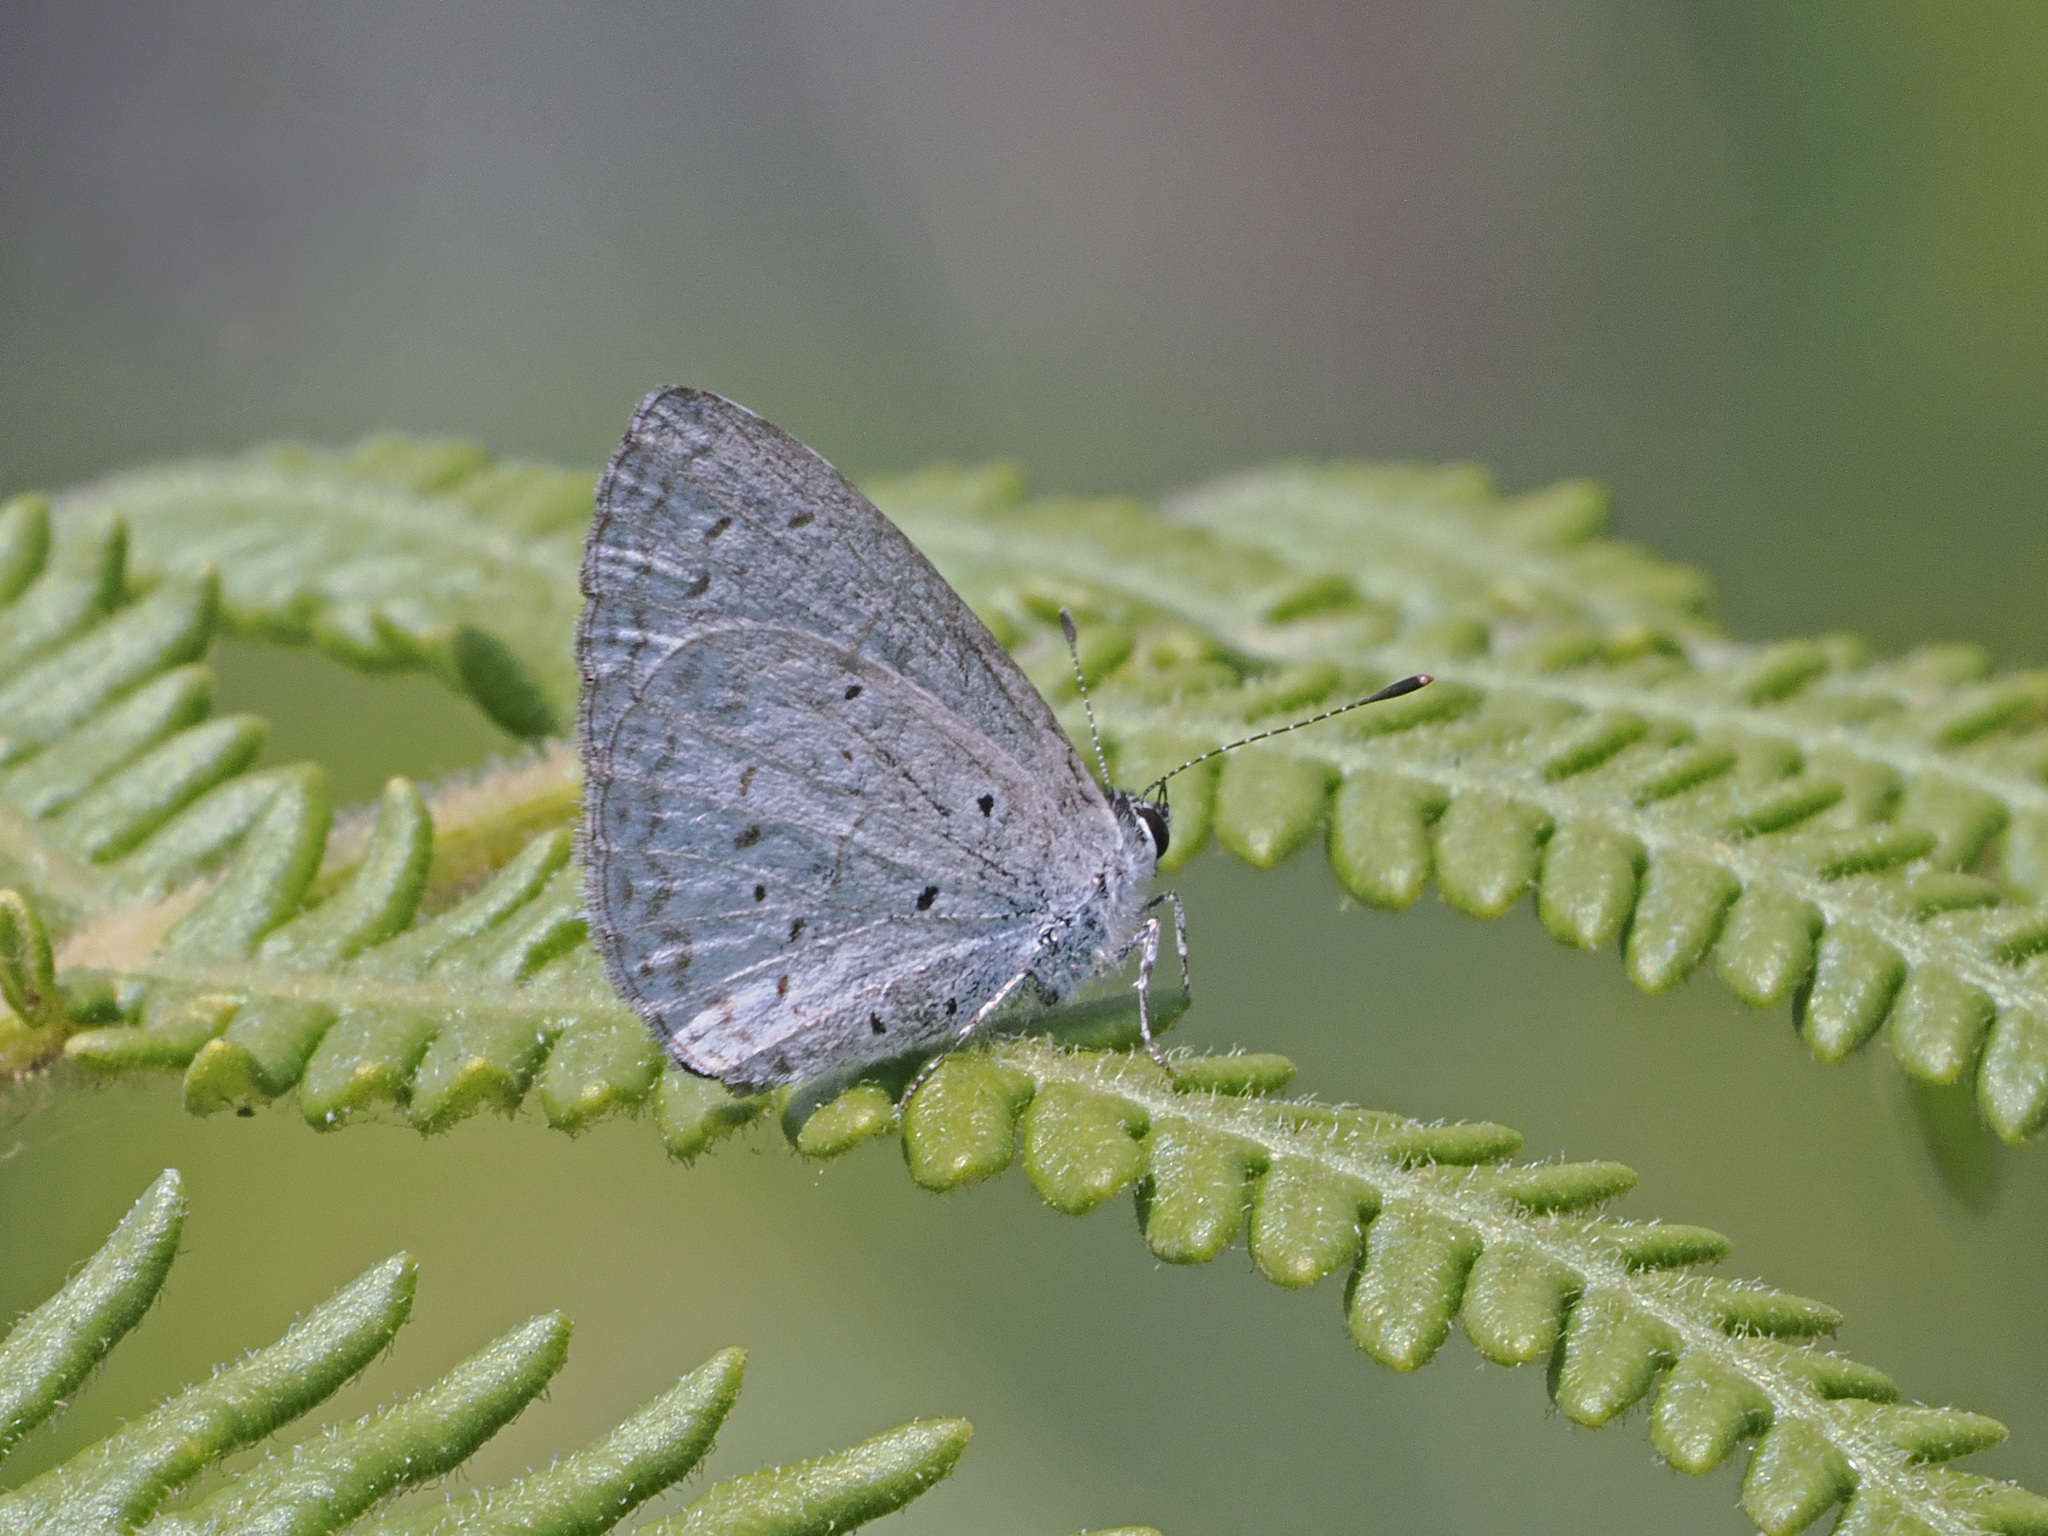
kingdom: Animalia
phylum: Arthropoda
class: Insecta
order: Lepidoptera
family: Lycaenidae
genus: Celastrina
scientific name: Celastrina argiolus
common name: Holly blue
